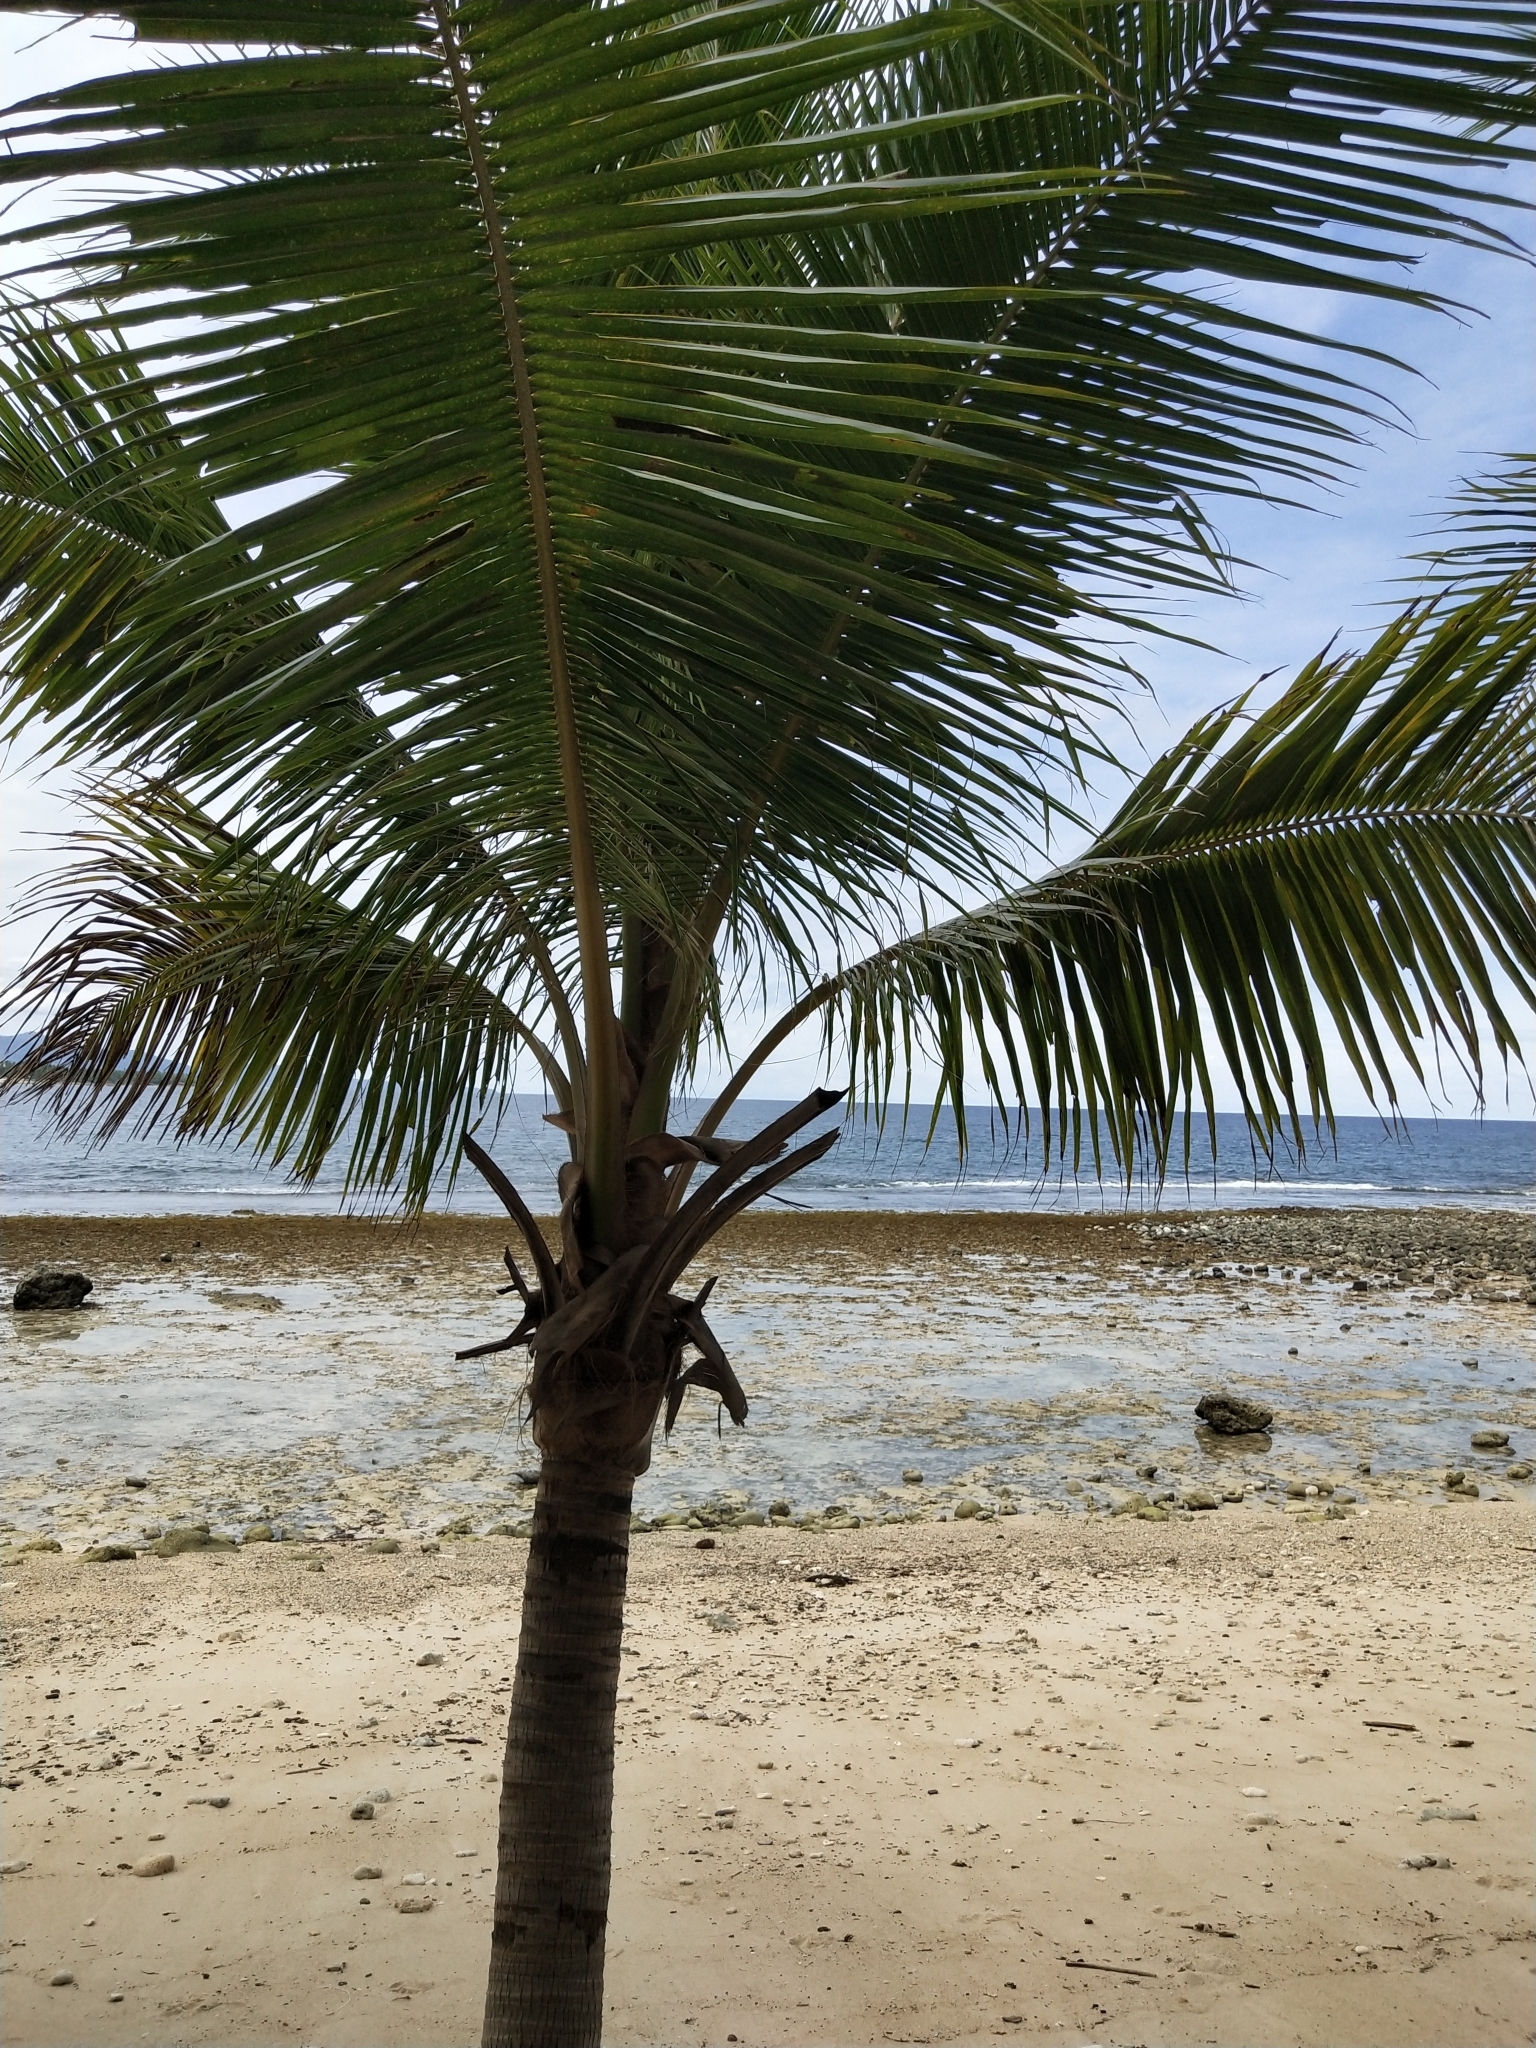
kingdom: Plantae
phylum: Tracheophyta
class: Liliopsida
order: Arecales
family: Arecaceae
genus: Cocos
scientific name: Cocos nucifera
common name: Coconut palm
